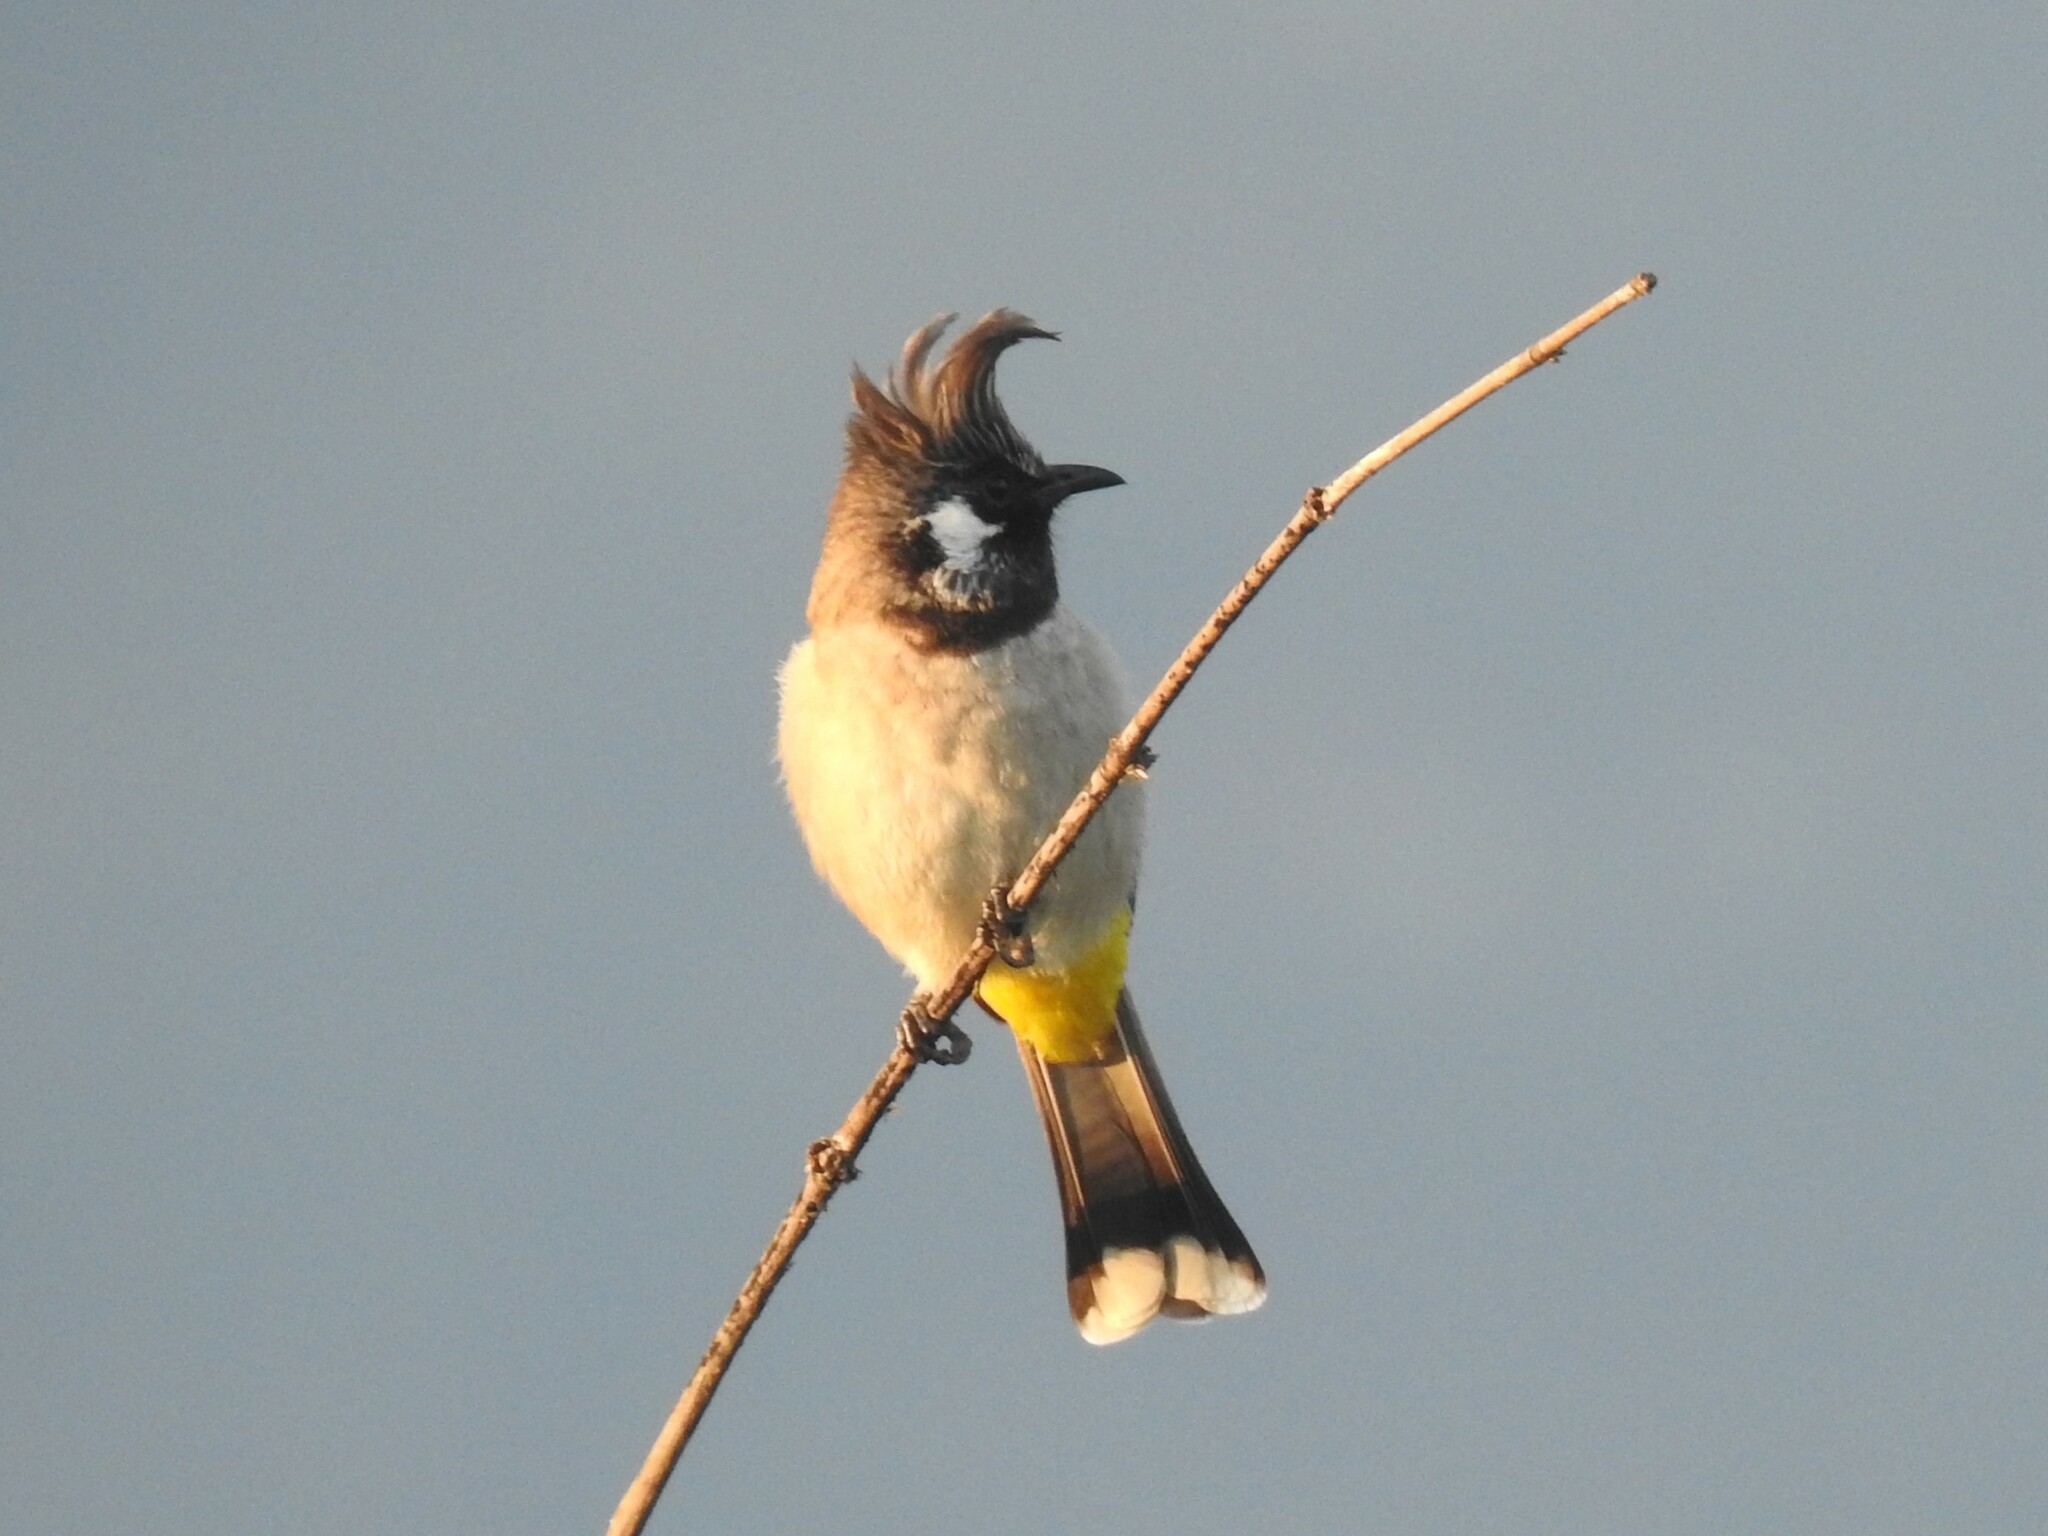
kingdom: Animalia
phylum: Chordata
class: Aves
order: Passeriformes
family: Pycnonotidae
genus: Pycnonotus
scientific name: Pycnonotus leucogenys
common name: Himalayan bulbul
